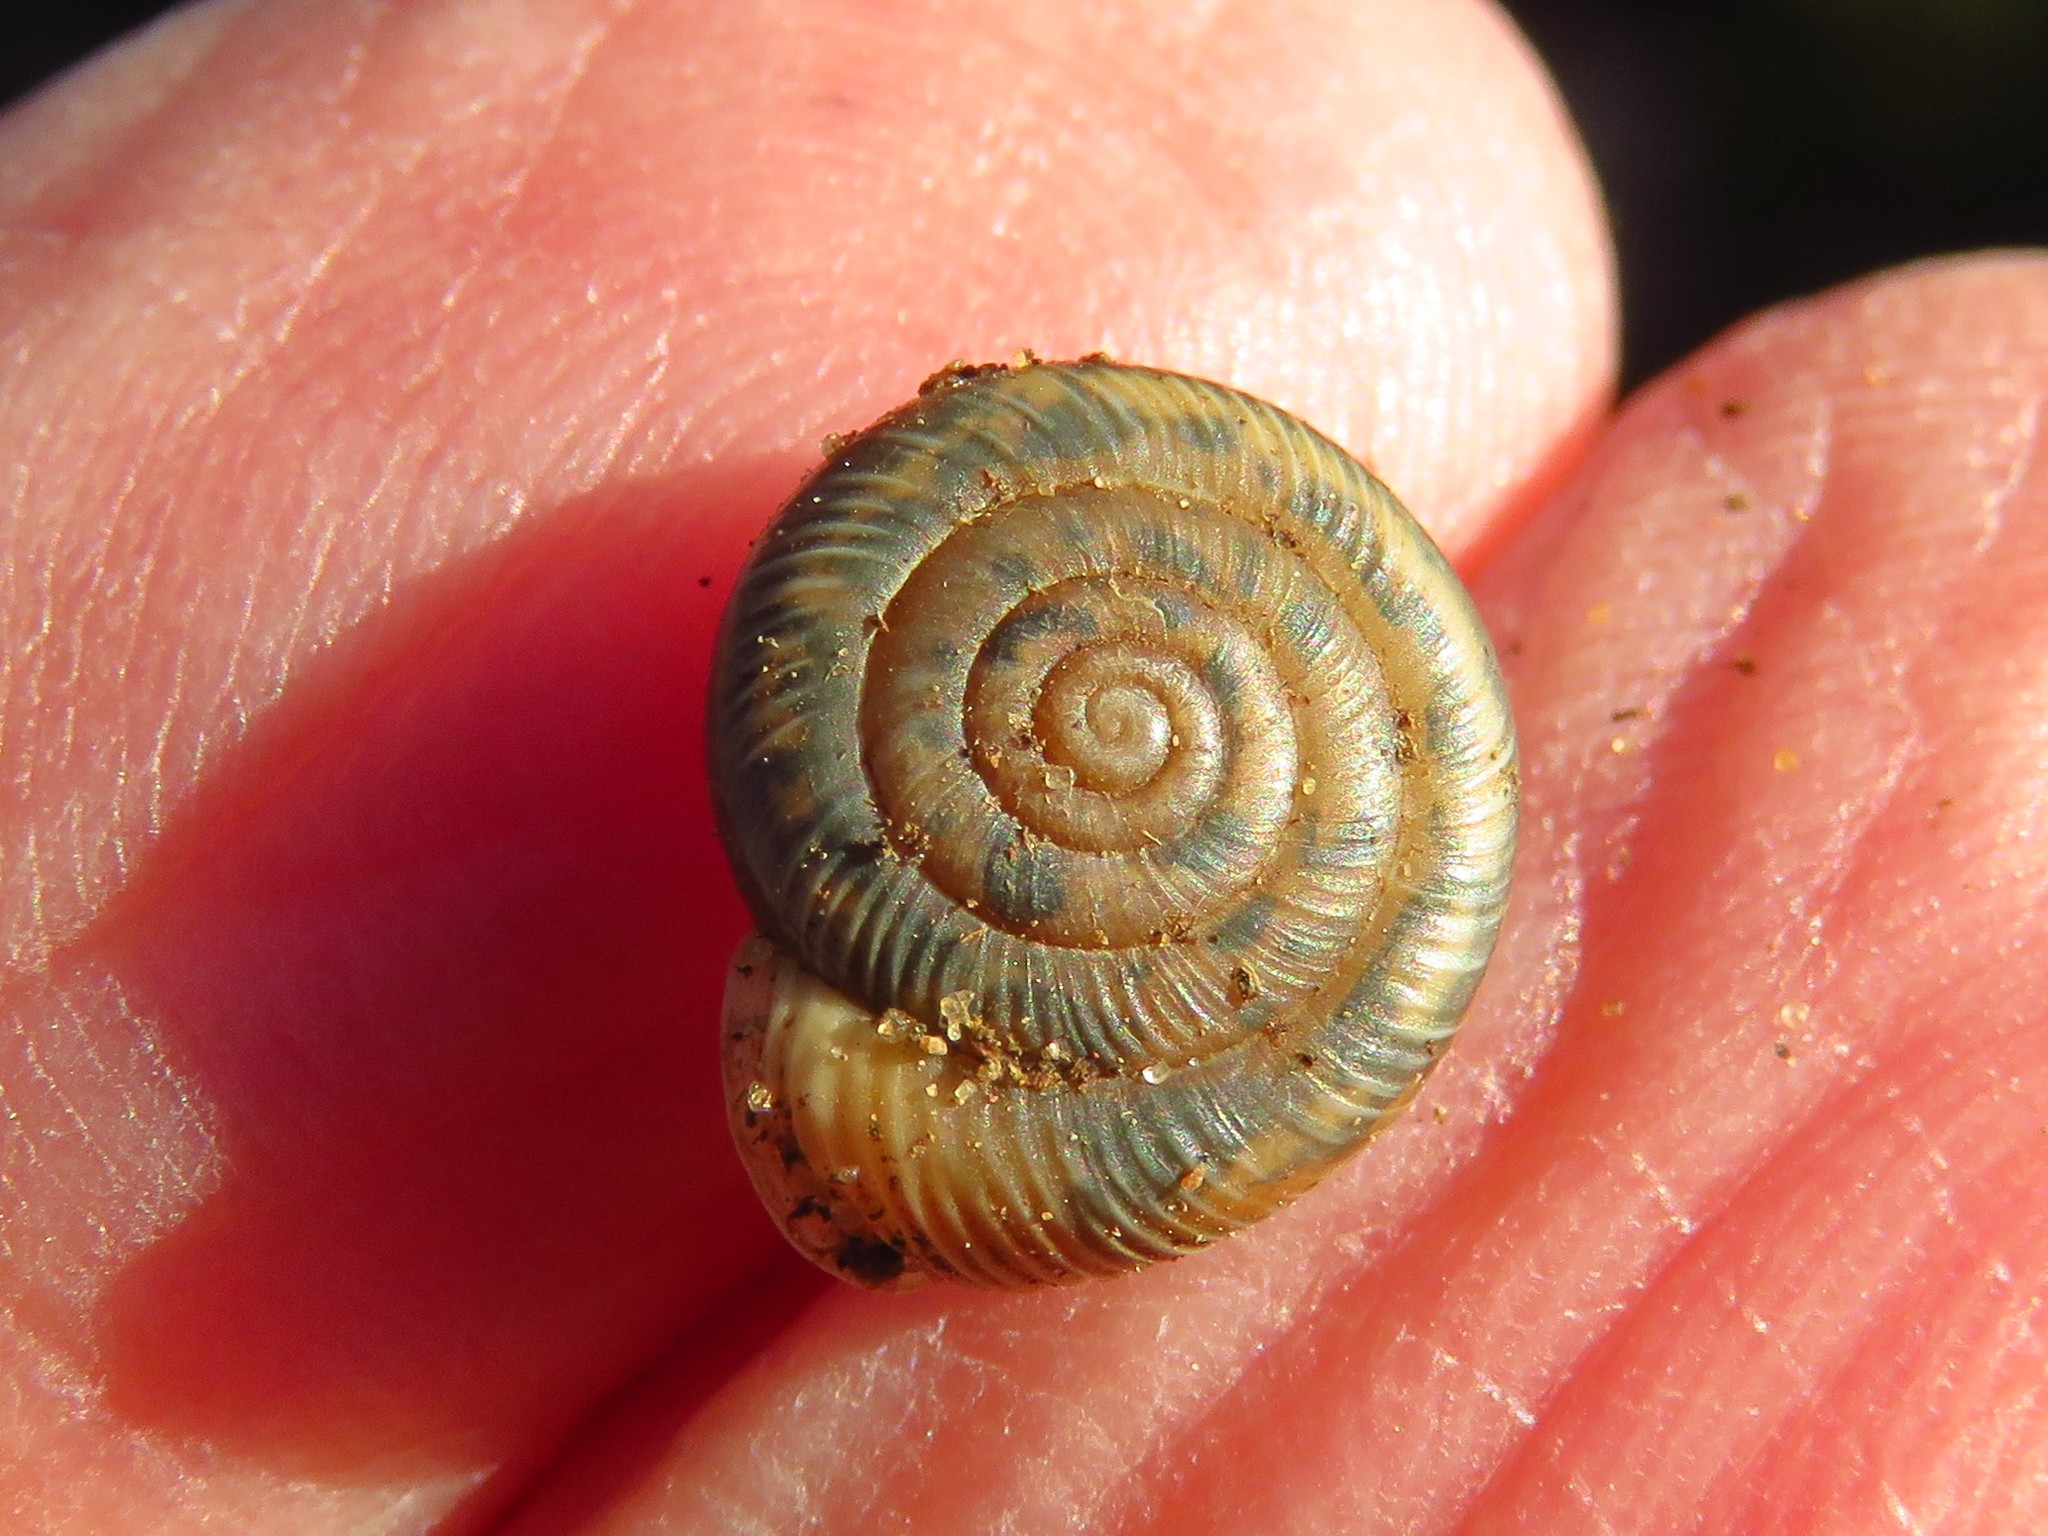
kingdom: Animalia
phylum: Mollusca
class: Gastropoda
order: Stylommatophora
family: Polygyridae
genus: Linisa
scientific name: Linisa texasiana
